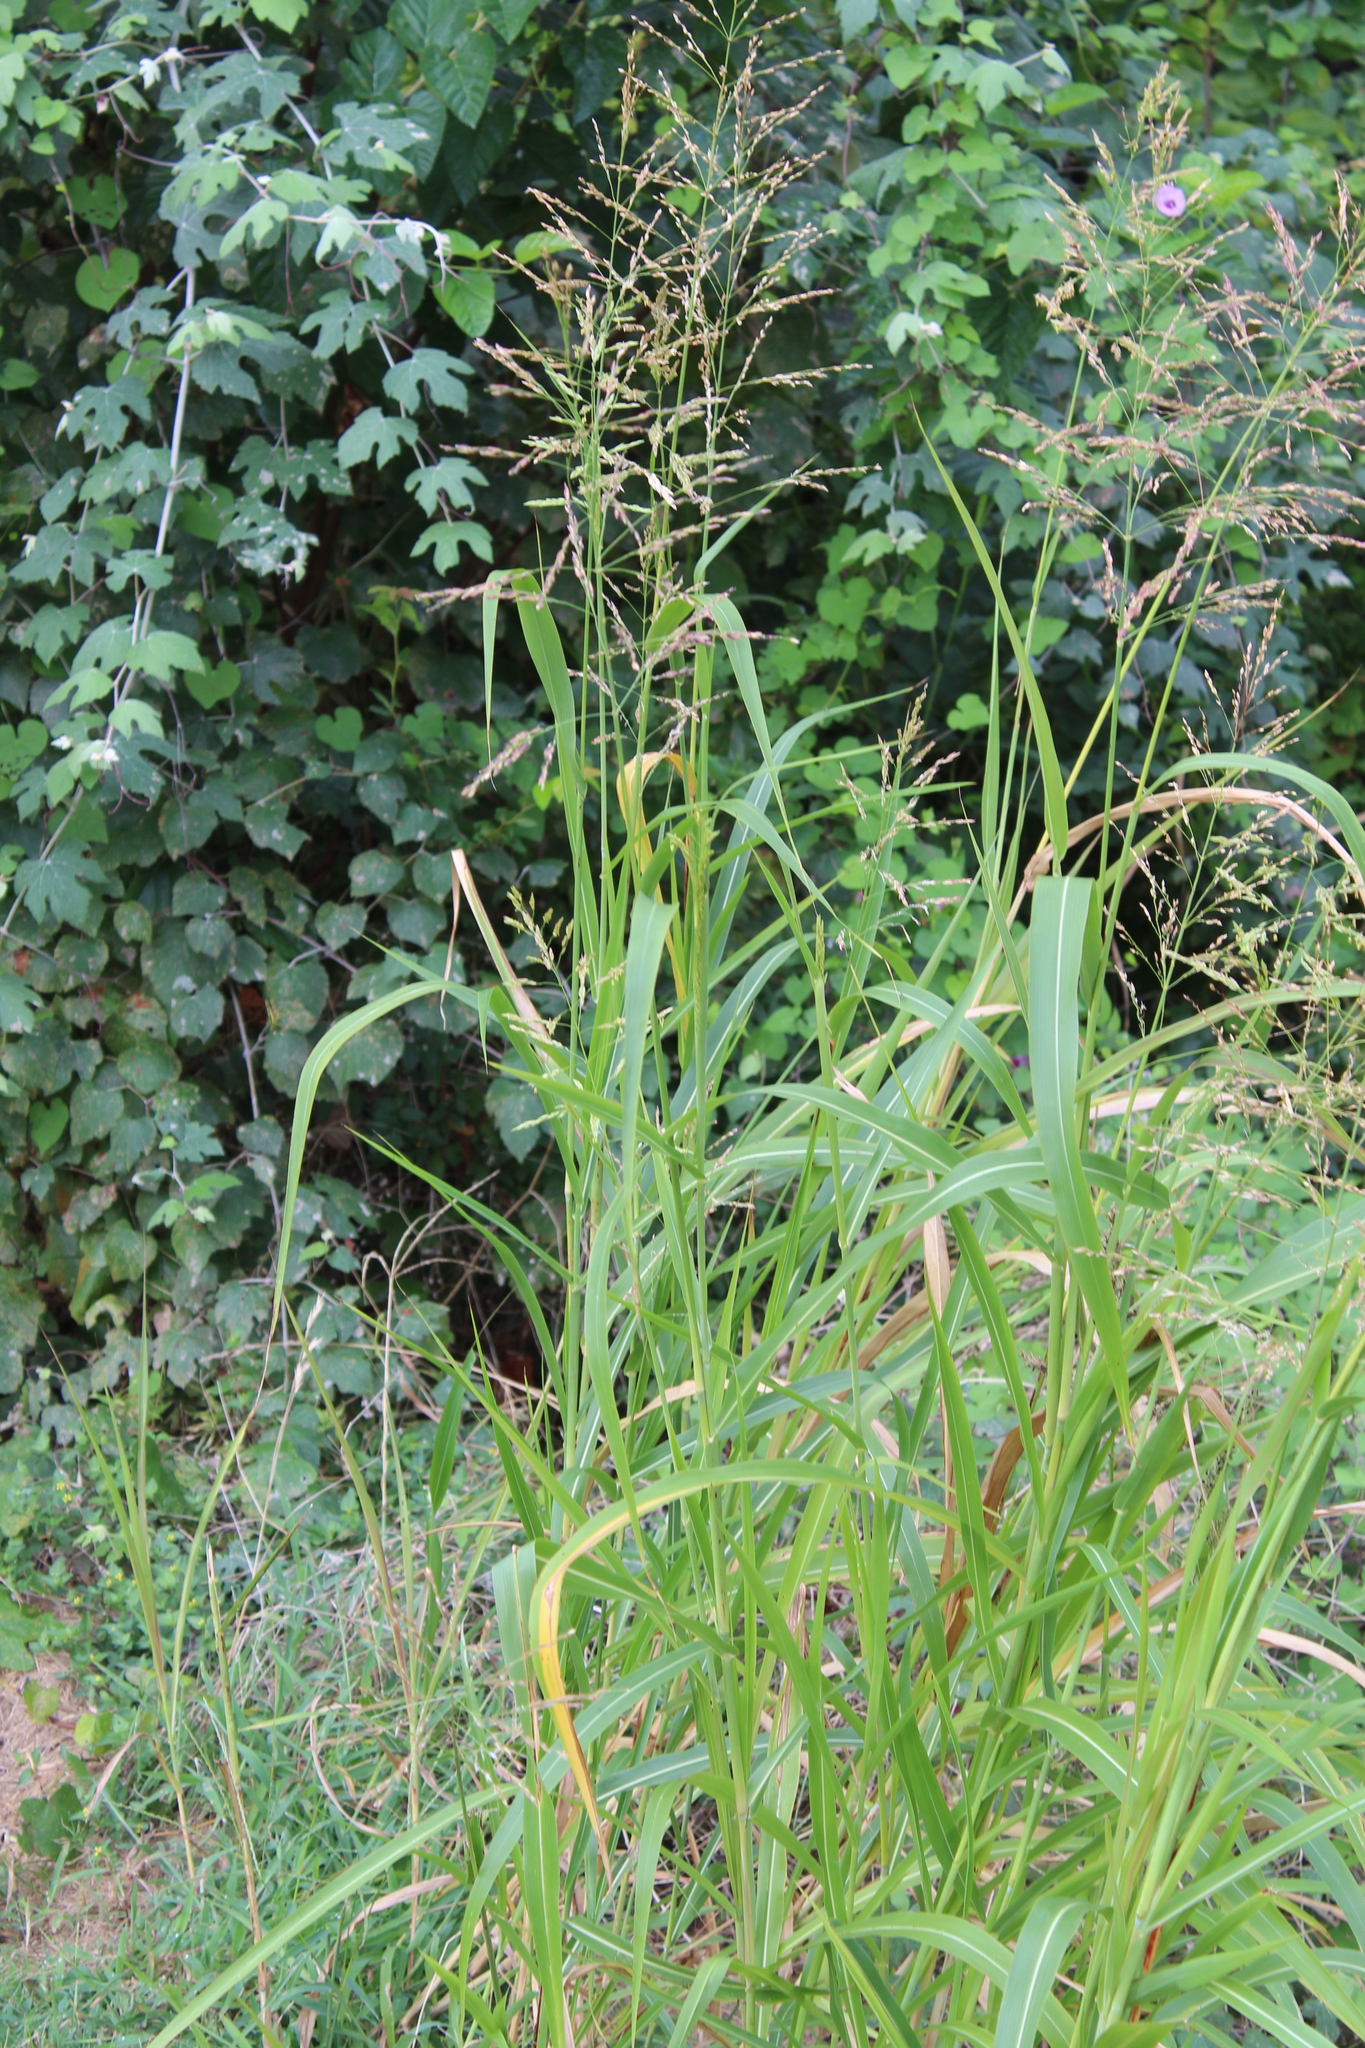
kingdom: Plantae
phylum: Tracheophyta
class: Liliopsida
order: Poales
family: Poaceae
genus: Sorghum
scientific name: Sorghum halepense
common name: Johnson-grass
